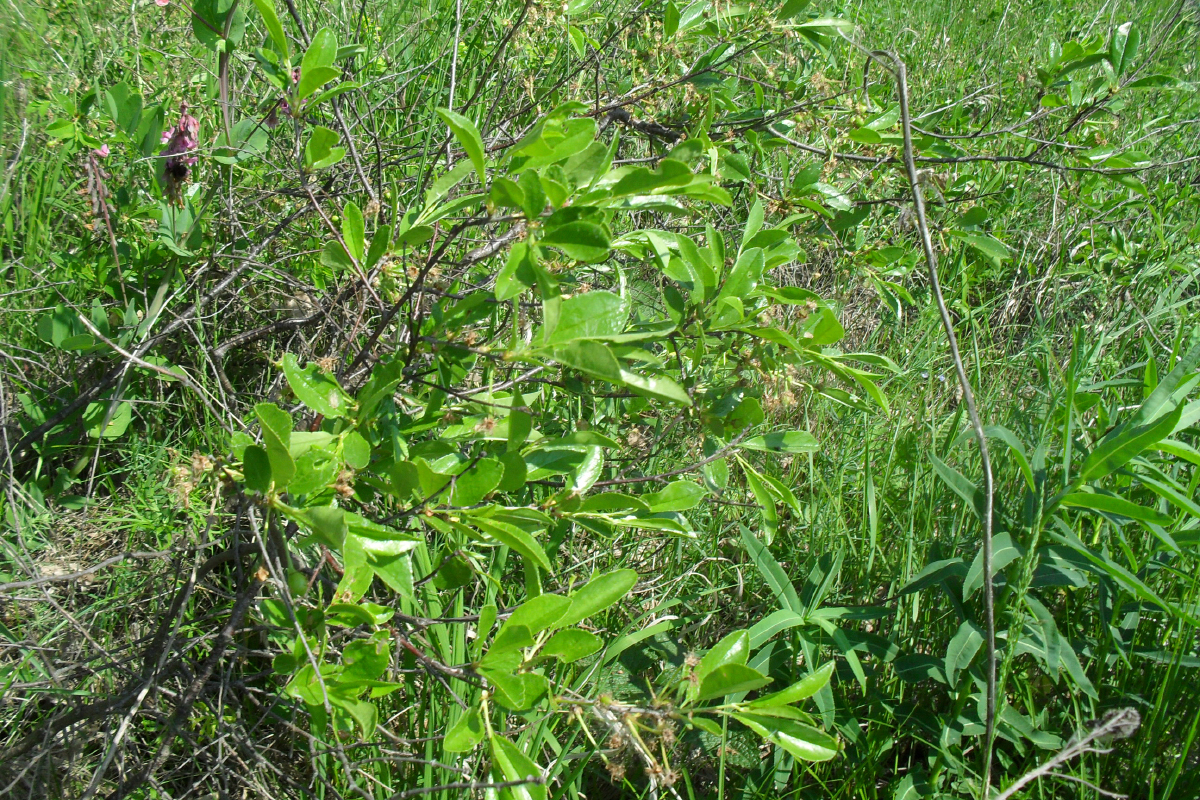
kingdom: Plantae
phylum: Tracheophyta
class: Magnoliopsida
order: Rosales
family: Rosaceae
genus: Prunus
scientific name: Prunus fruticosa
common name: European dwarf cherry
